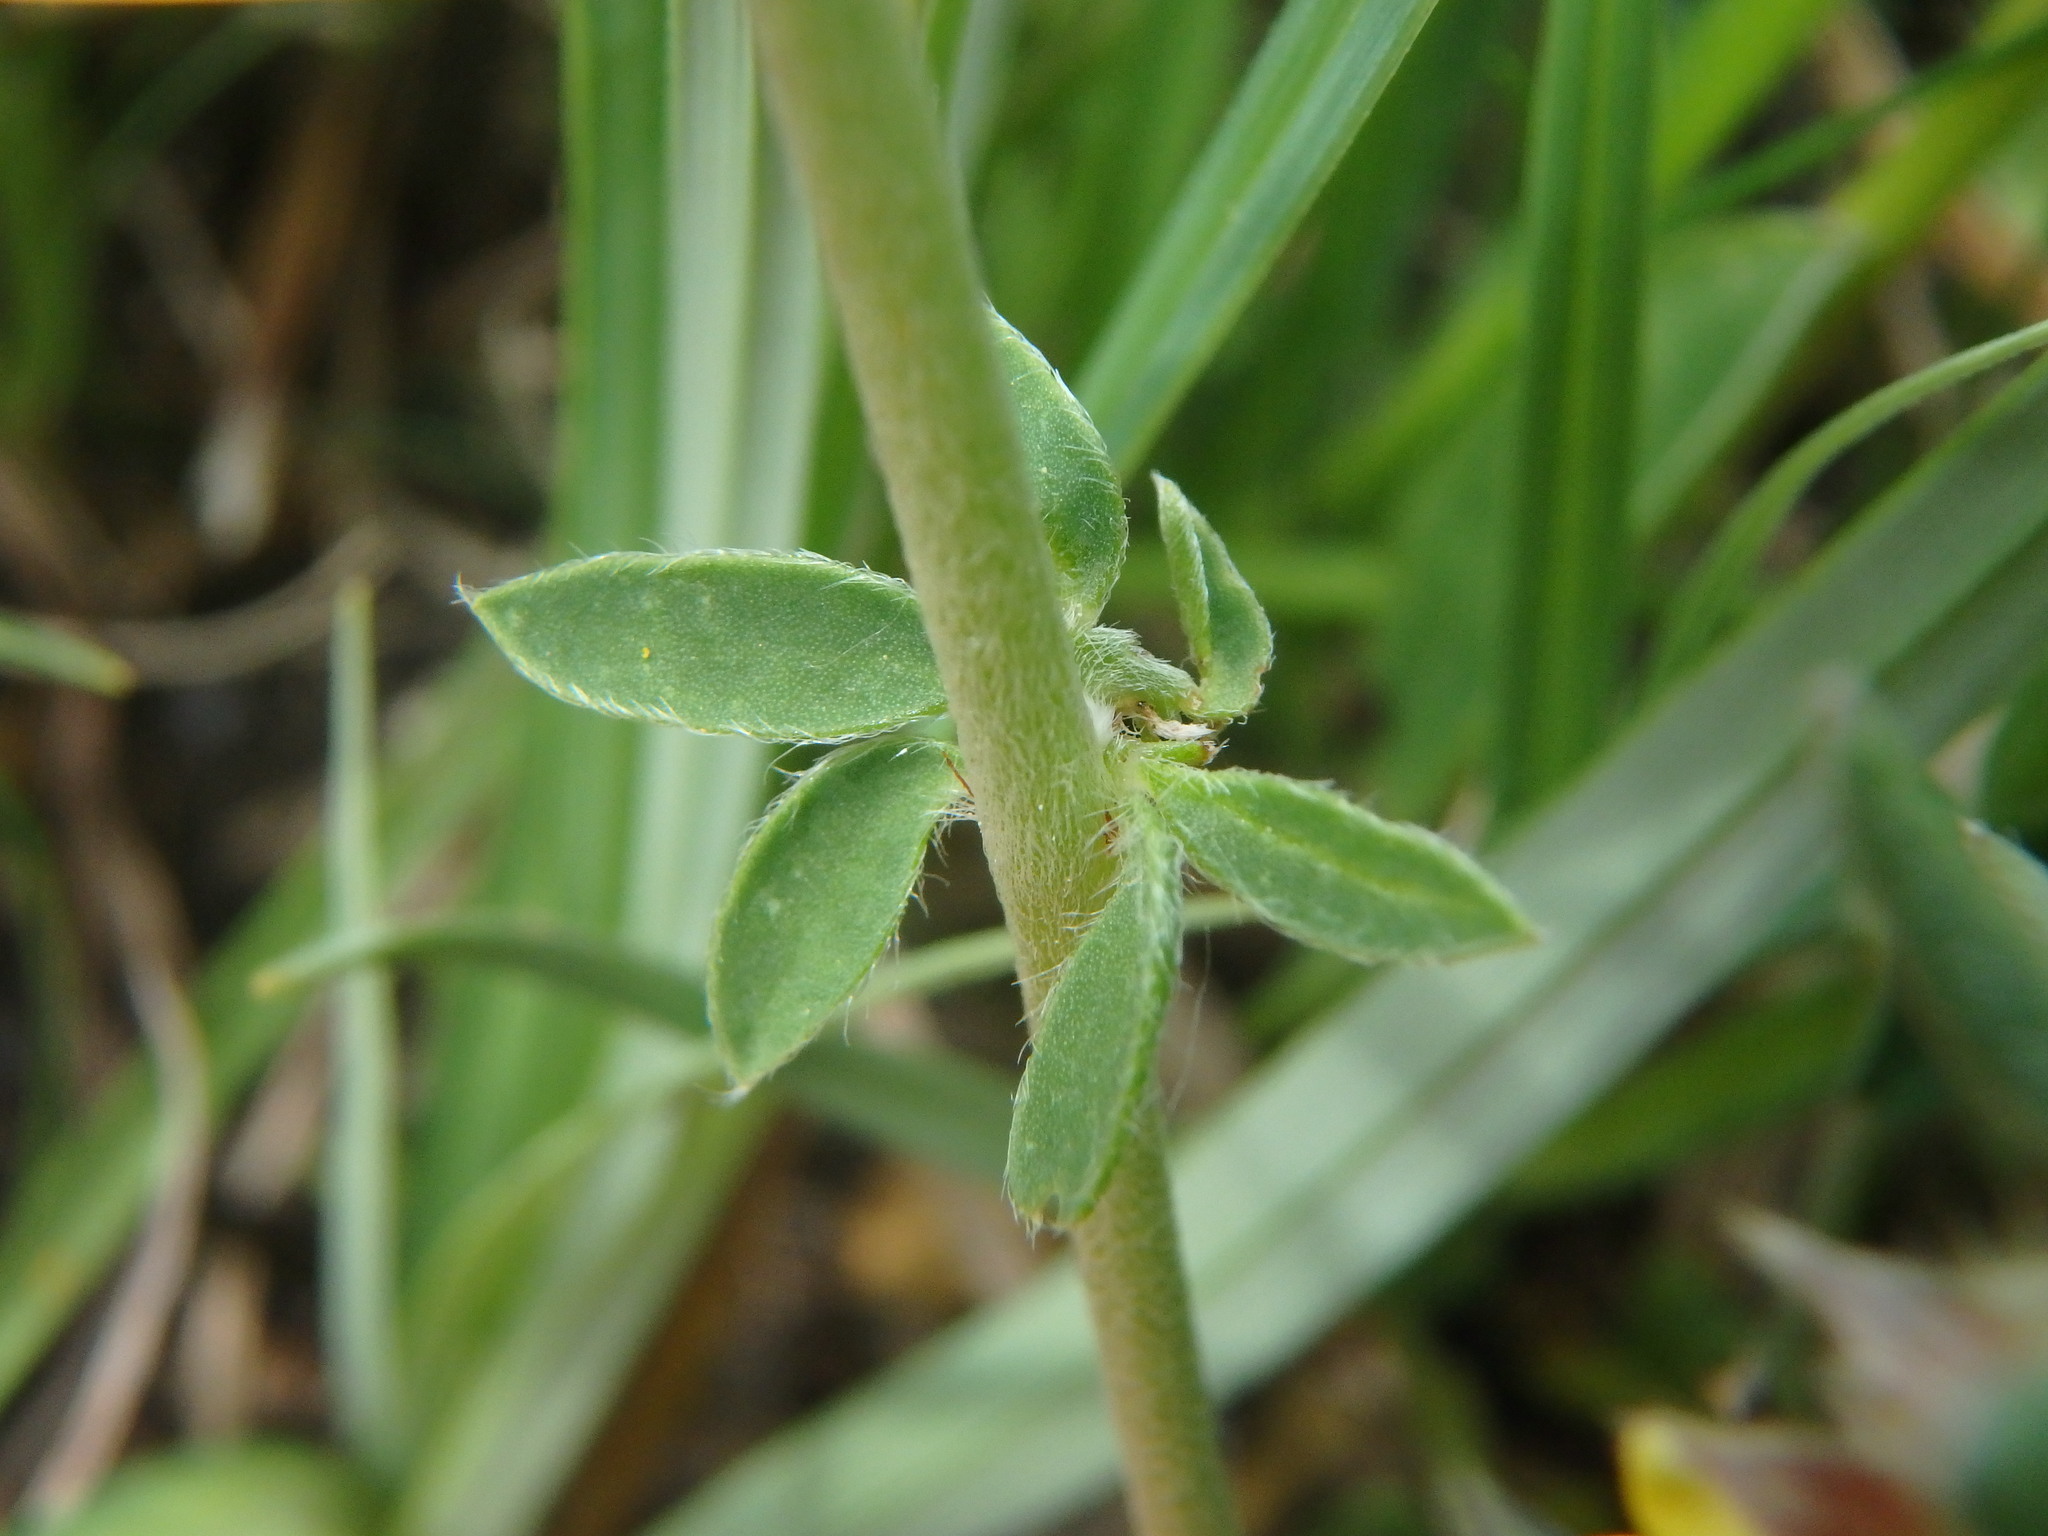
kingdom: Plantae
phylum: Tracheophyta
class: Magnoliopsida
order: Fabales
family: Fabaceae
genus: Anthyllis
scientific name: Anthyllis vulneraria
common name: Kidney vetch
